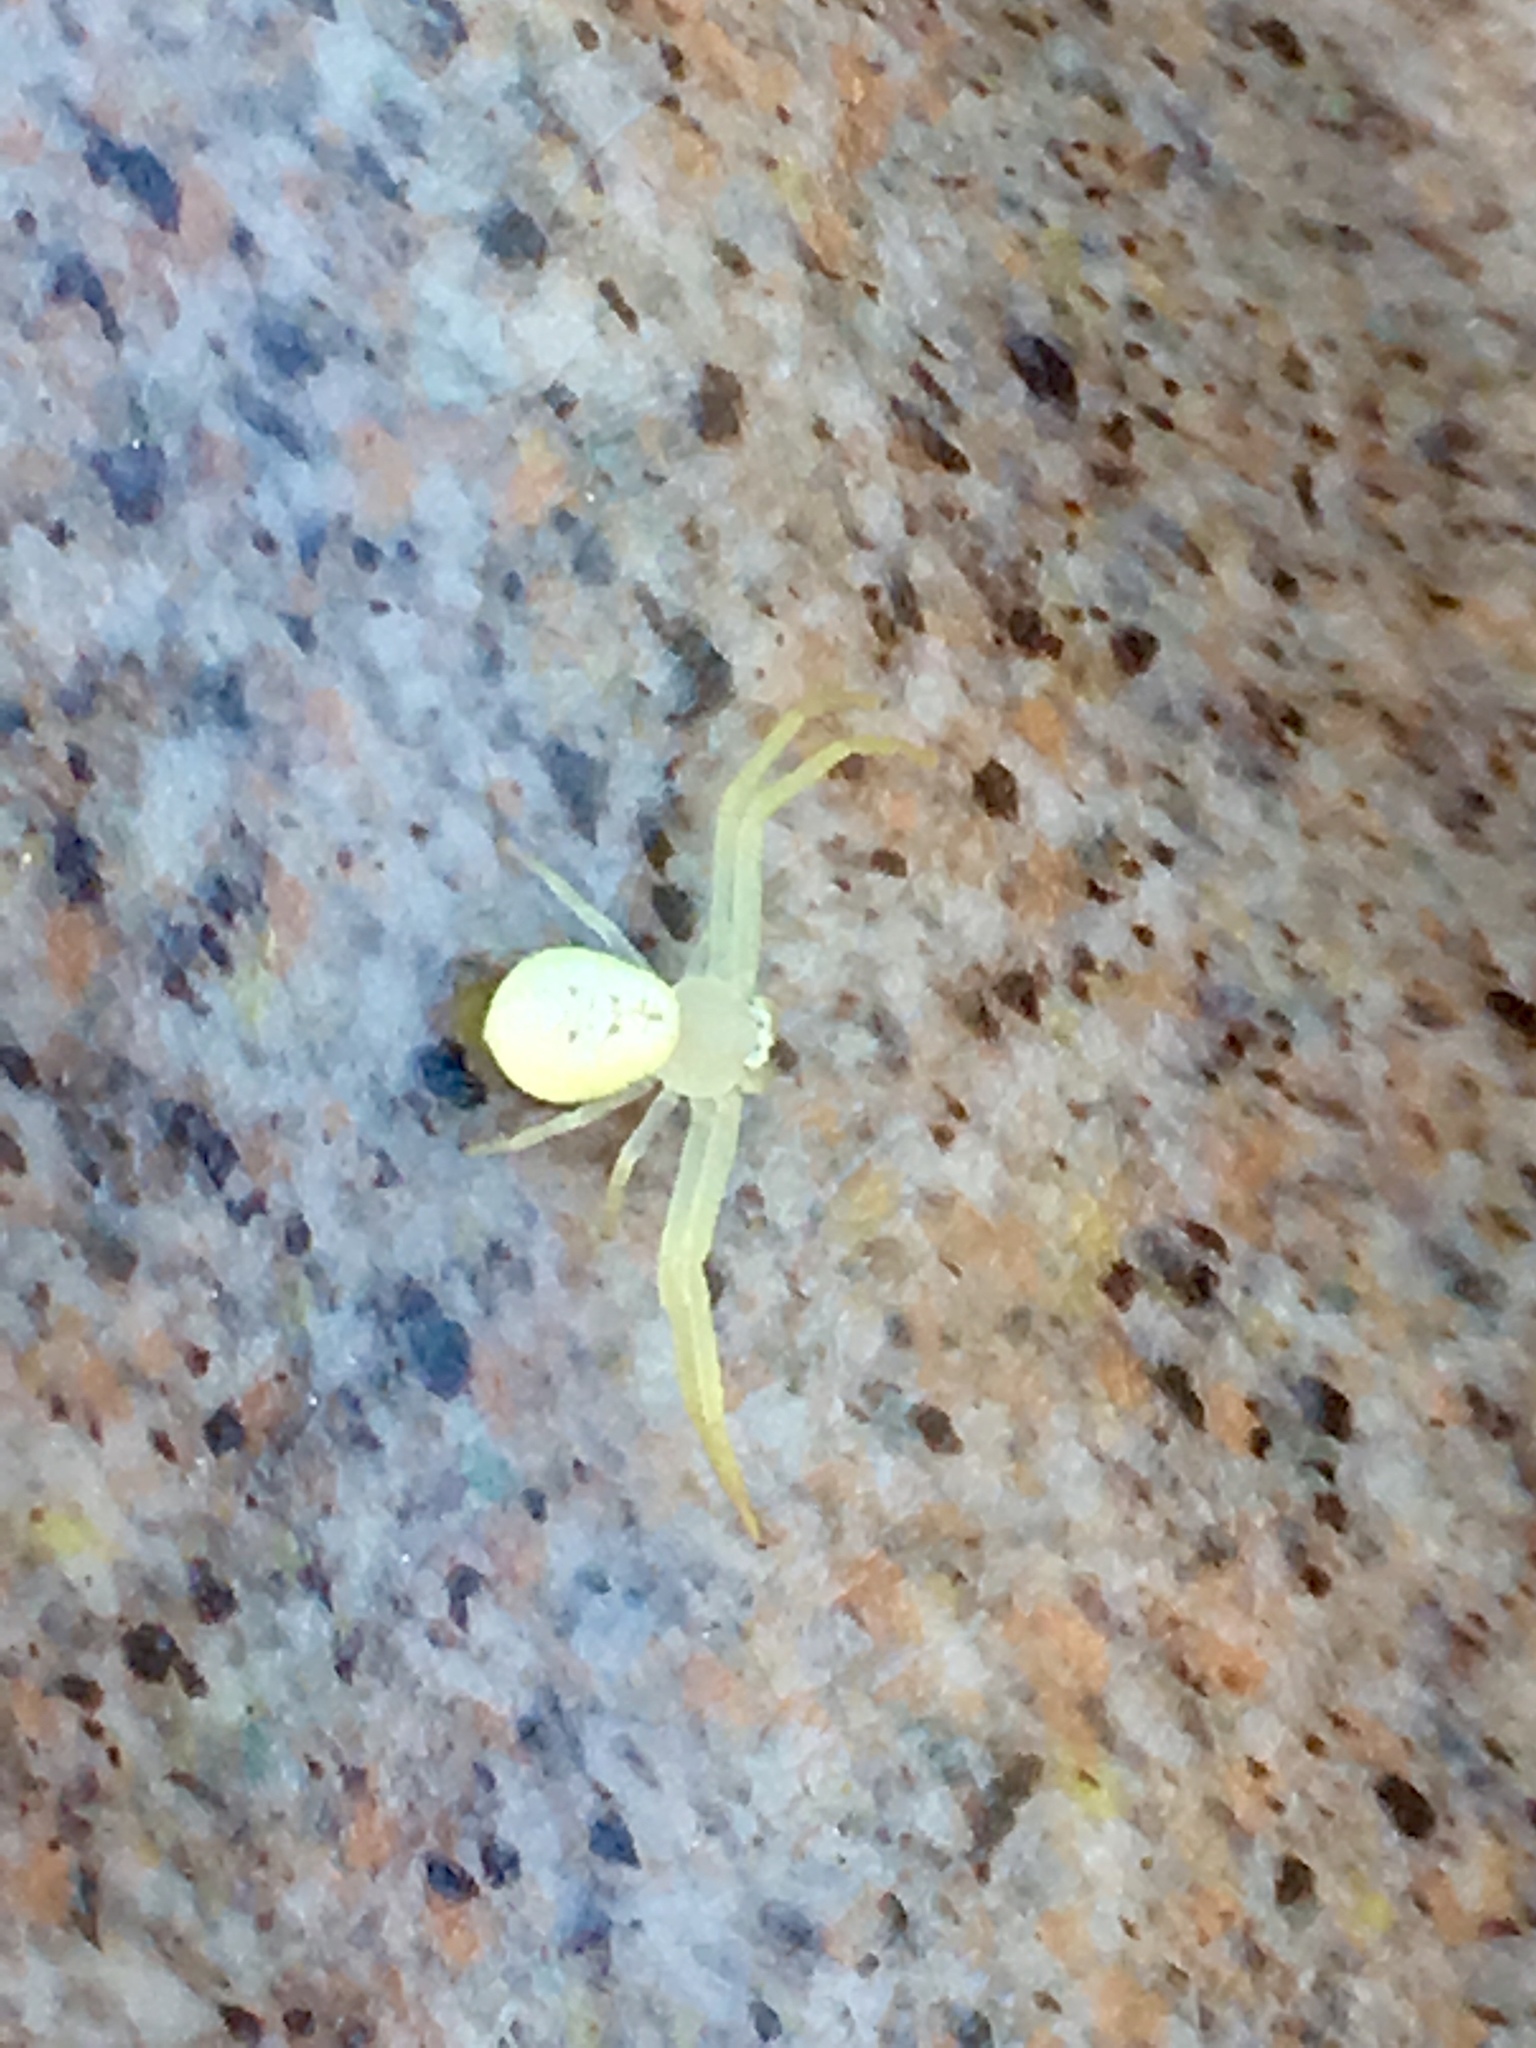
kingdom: Animalia
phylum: Arthropoda
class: Arachnida
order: Araneae
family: Thomisidae
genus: Misumessus
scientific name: Misumessus oblongus
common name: American green crab spider
